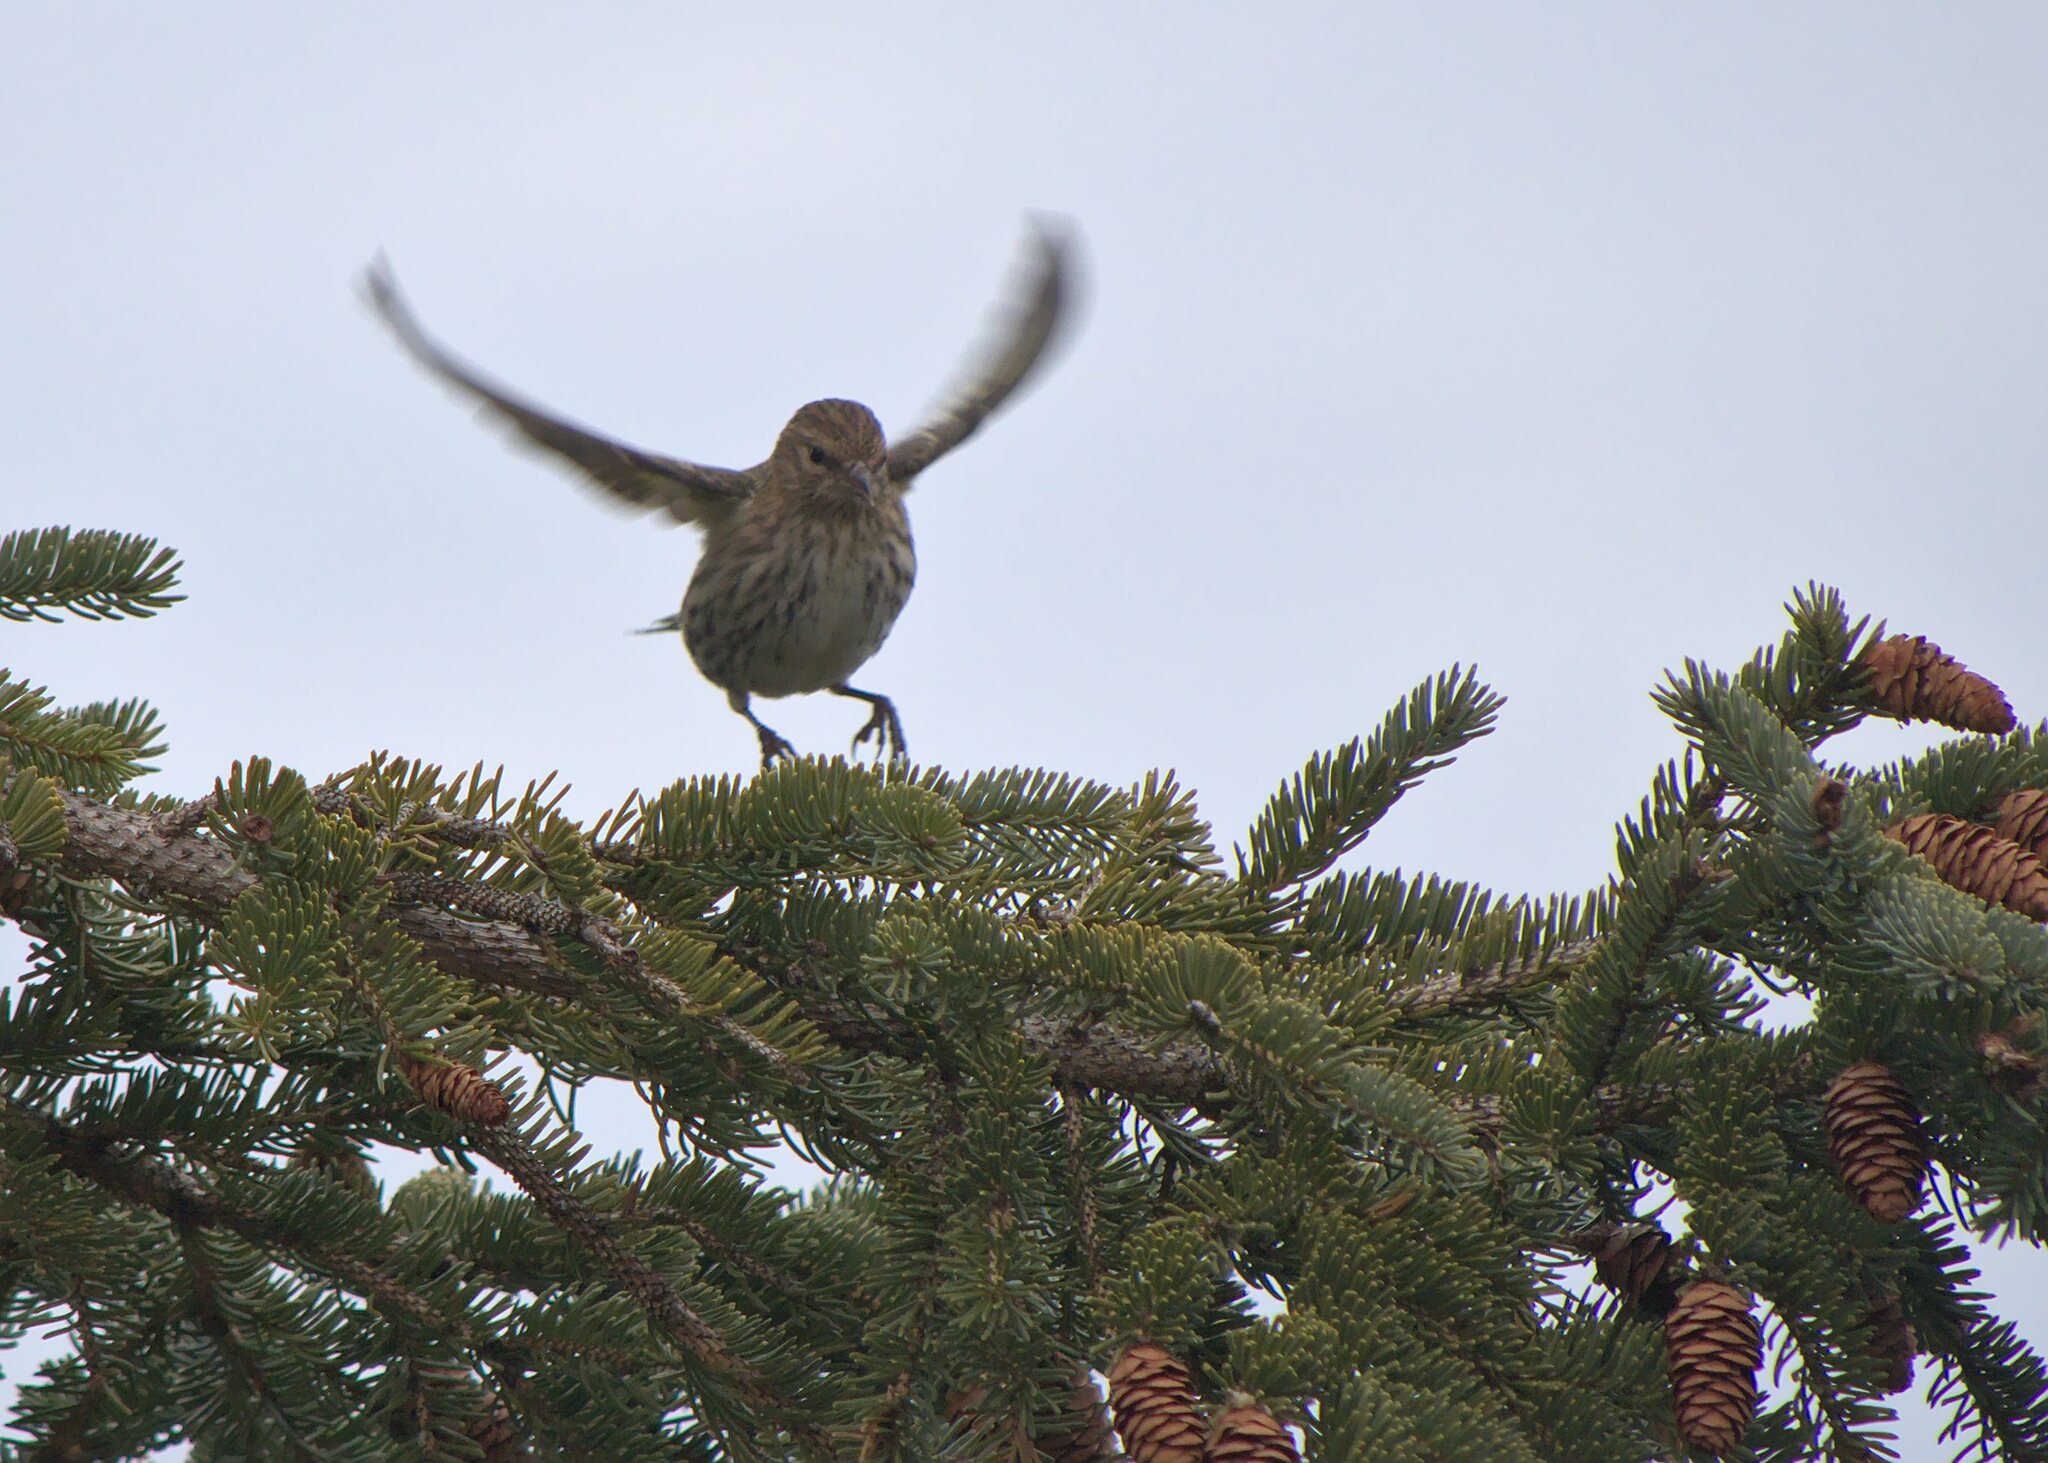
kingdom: Animalia
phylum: Chordata
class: Aves
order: Passeriformes
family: Fringillidae
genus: Spinus
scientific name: Spinus pinus
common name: Pine siskin
